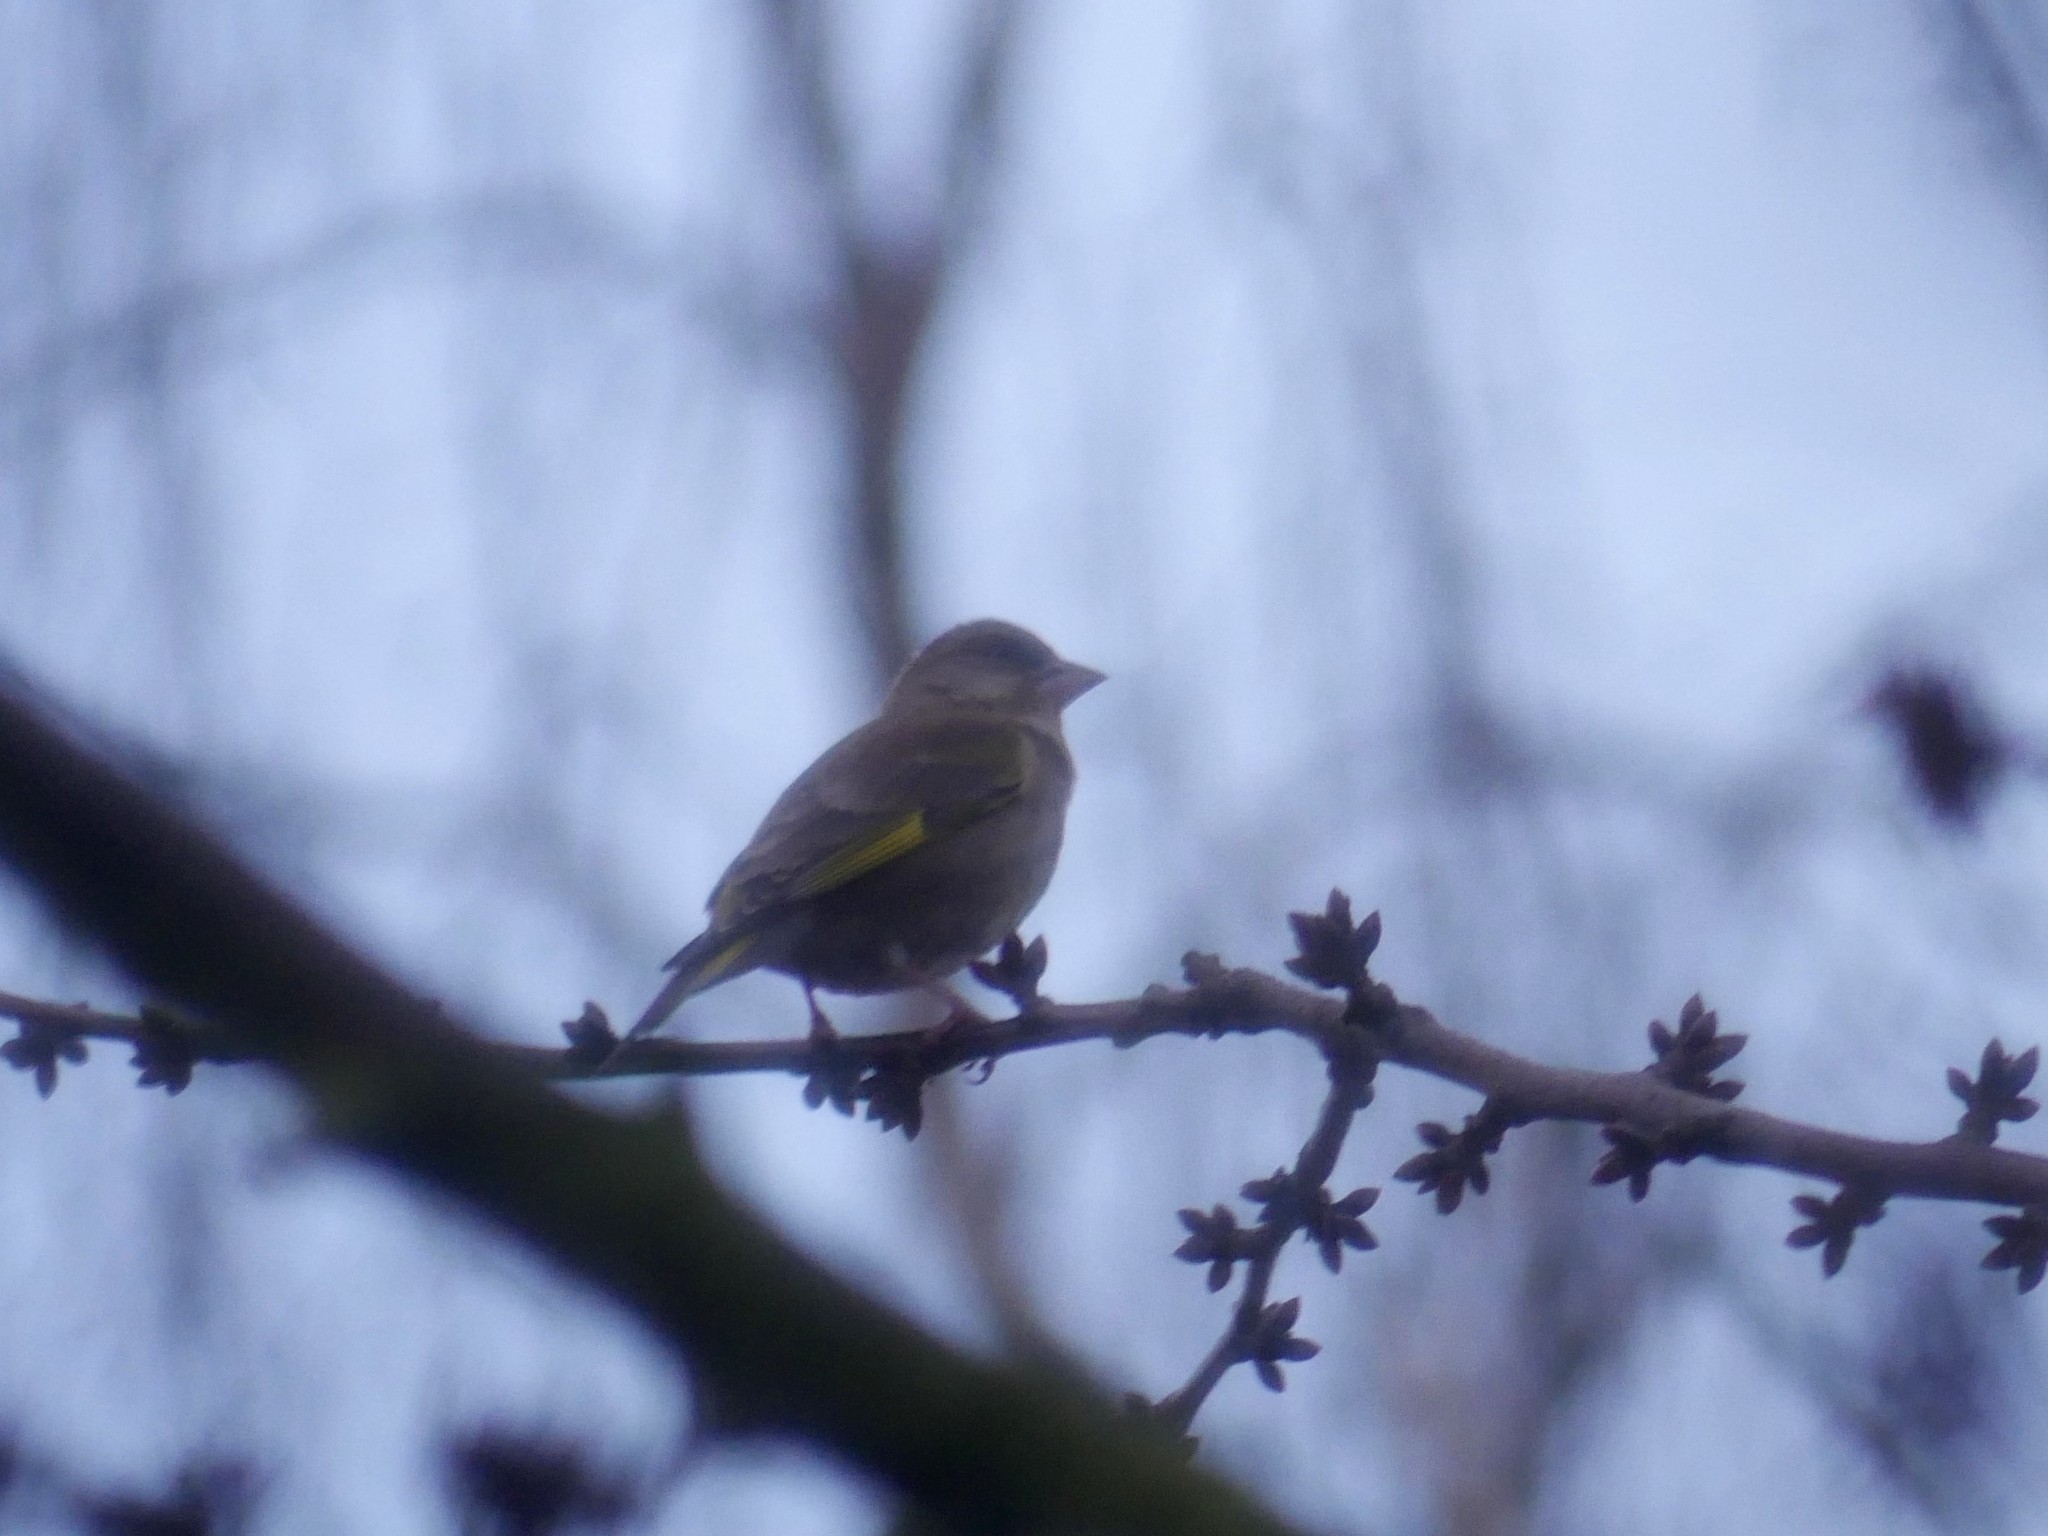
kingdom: Plantae
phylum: Tracheophyta
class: Liliopsida
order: Poales
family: Poaceae
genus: Chloris
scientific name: Chloris chloris
